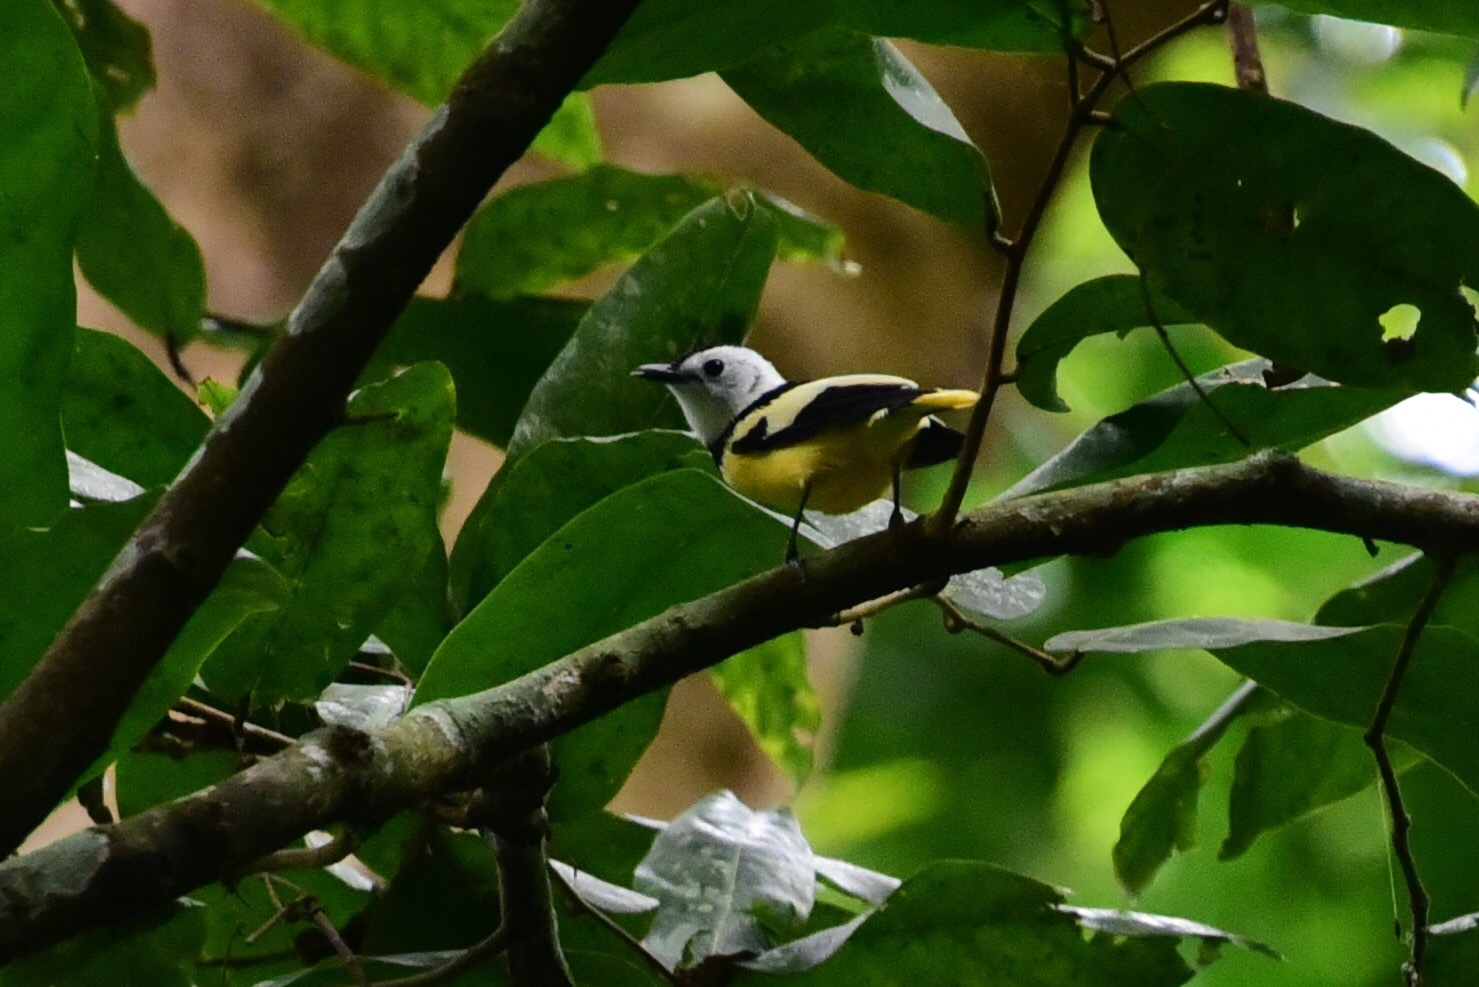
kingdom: Animalia
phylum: Chordata
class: Aves
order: Passeriformes
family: Monarchidae
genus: Neolalage
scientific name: Neolalage banksiana
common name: Buff-bellied monarch
